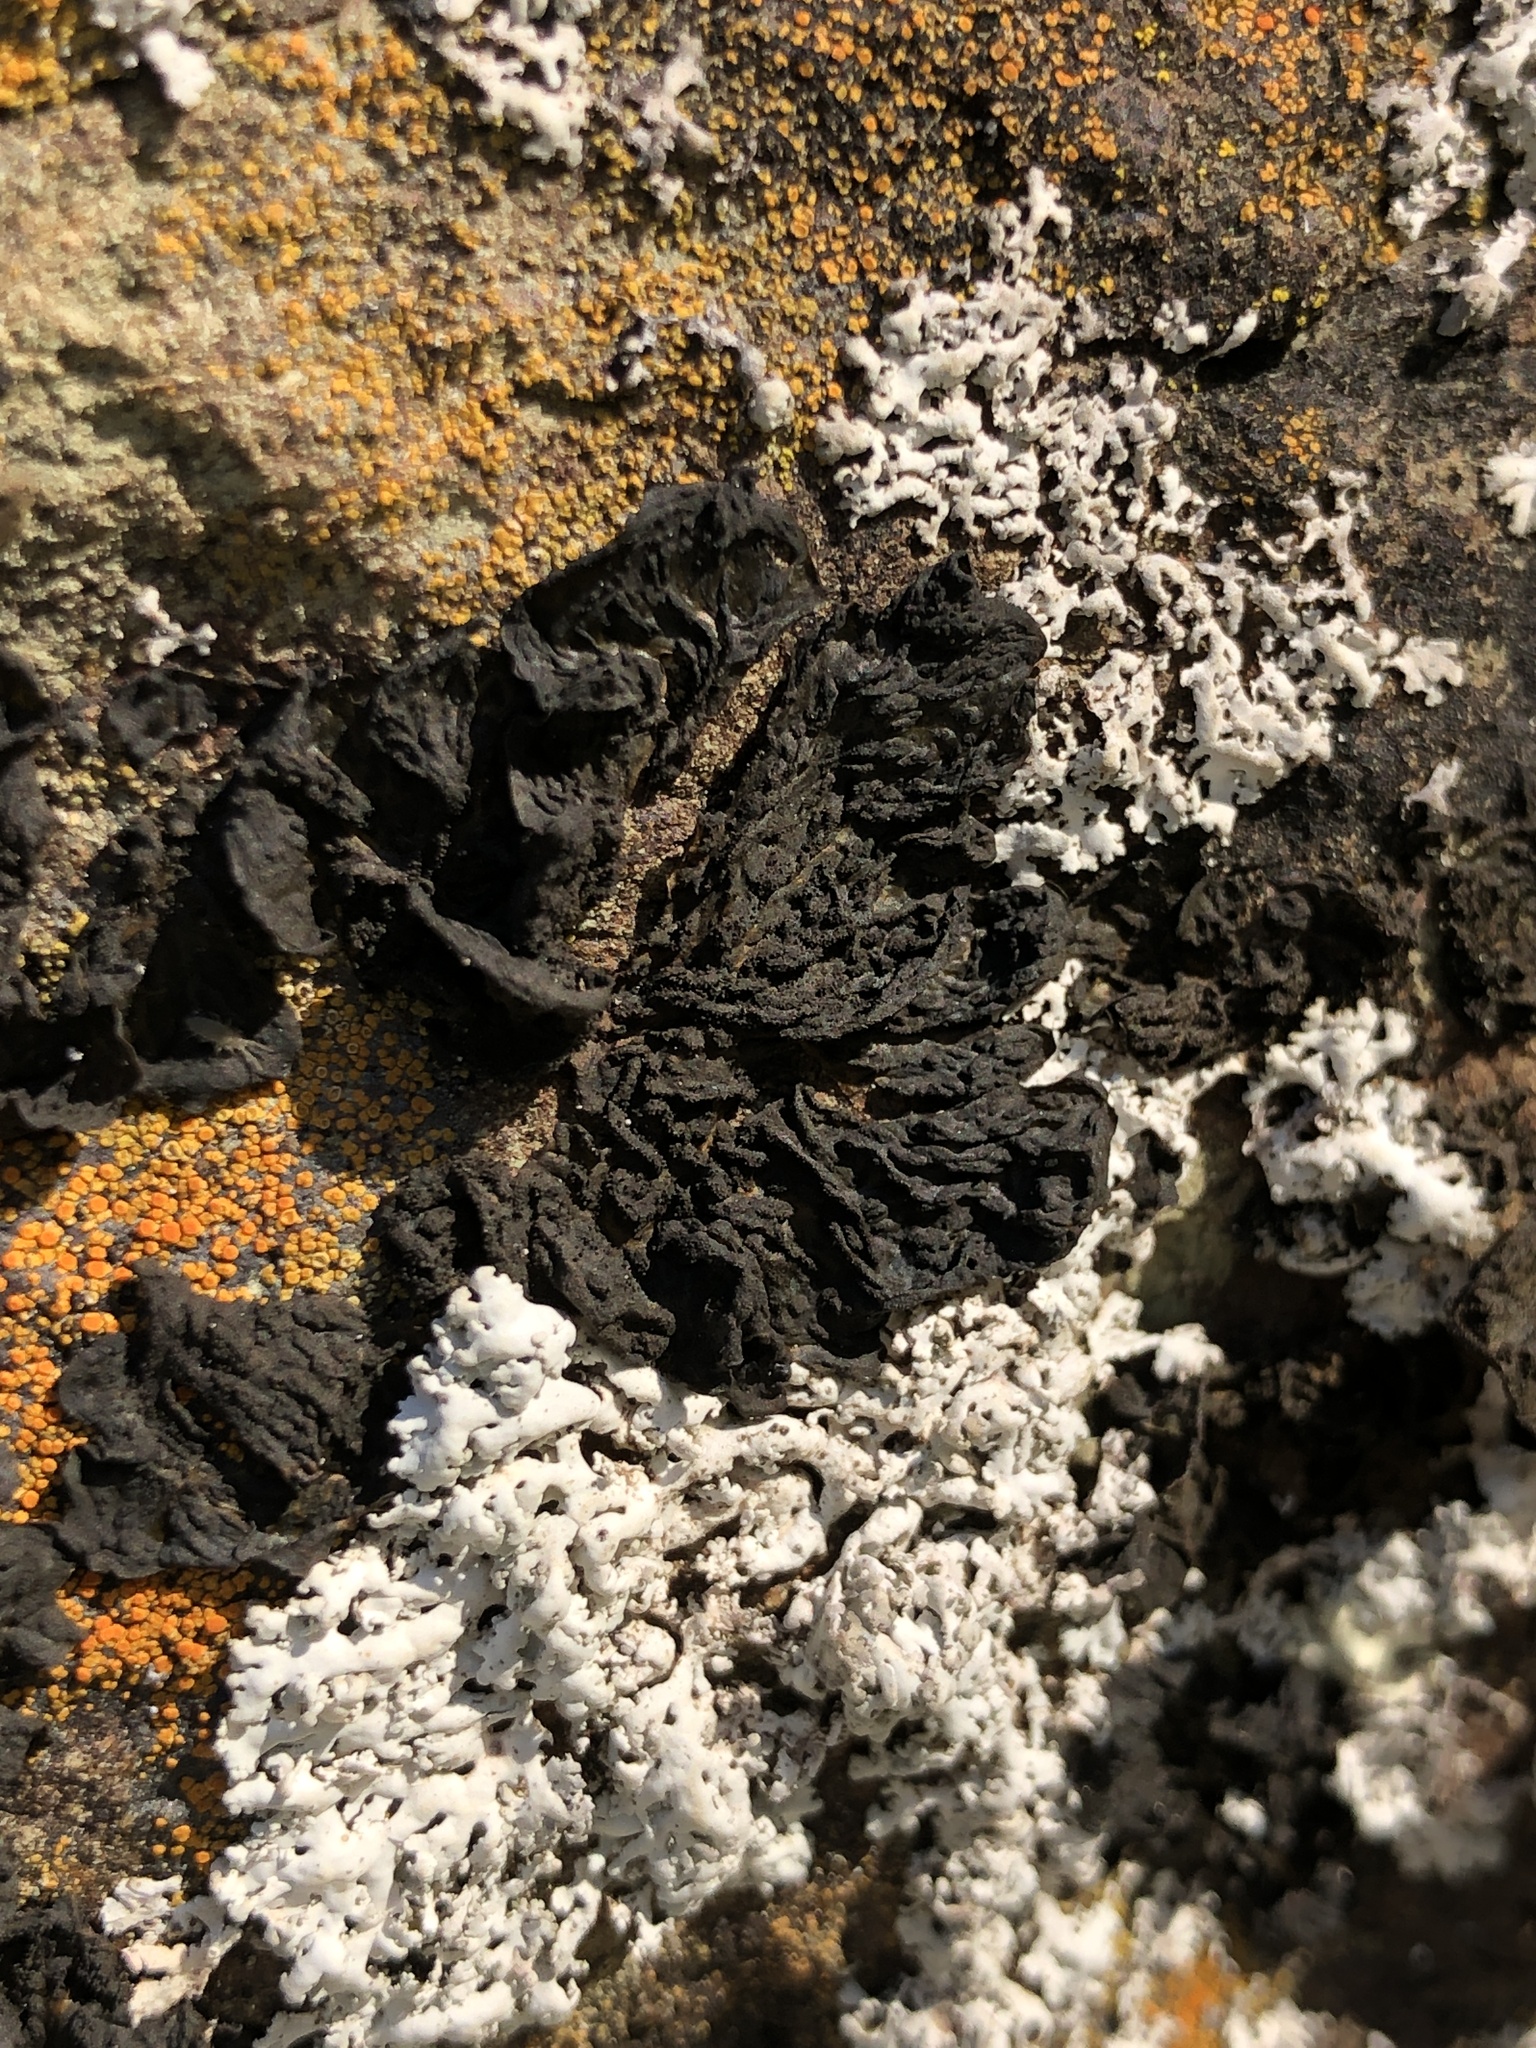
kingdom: Fungi
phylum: Ascomycota
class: Lecanoromycetes
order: Peltigerales
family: Collemataceae
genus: Collema
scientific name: Collema furfuraceum
